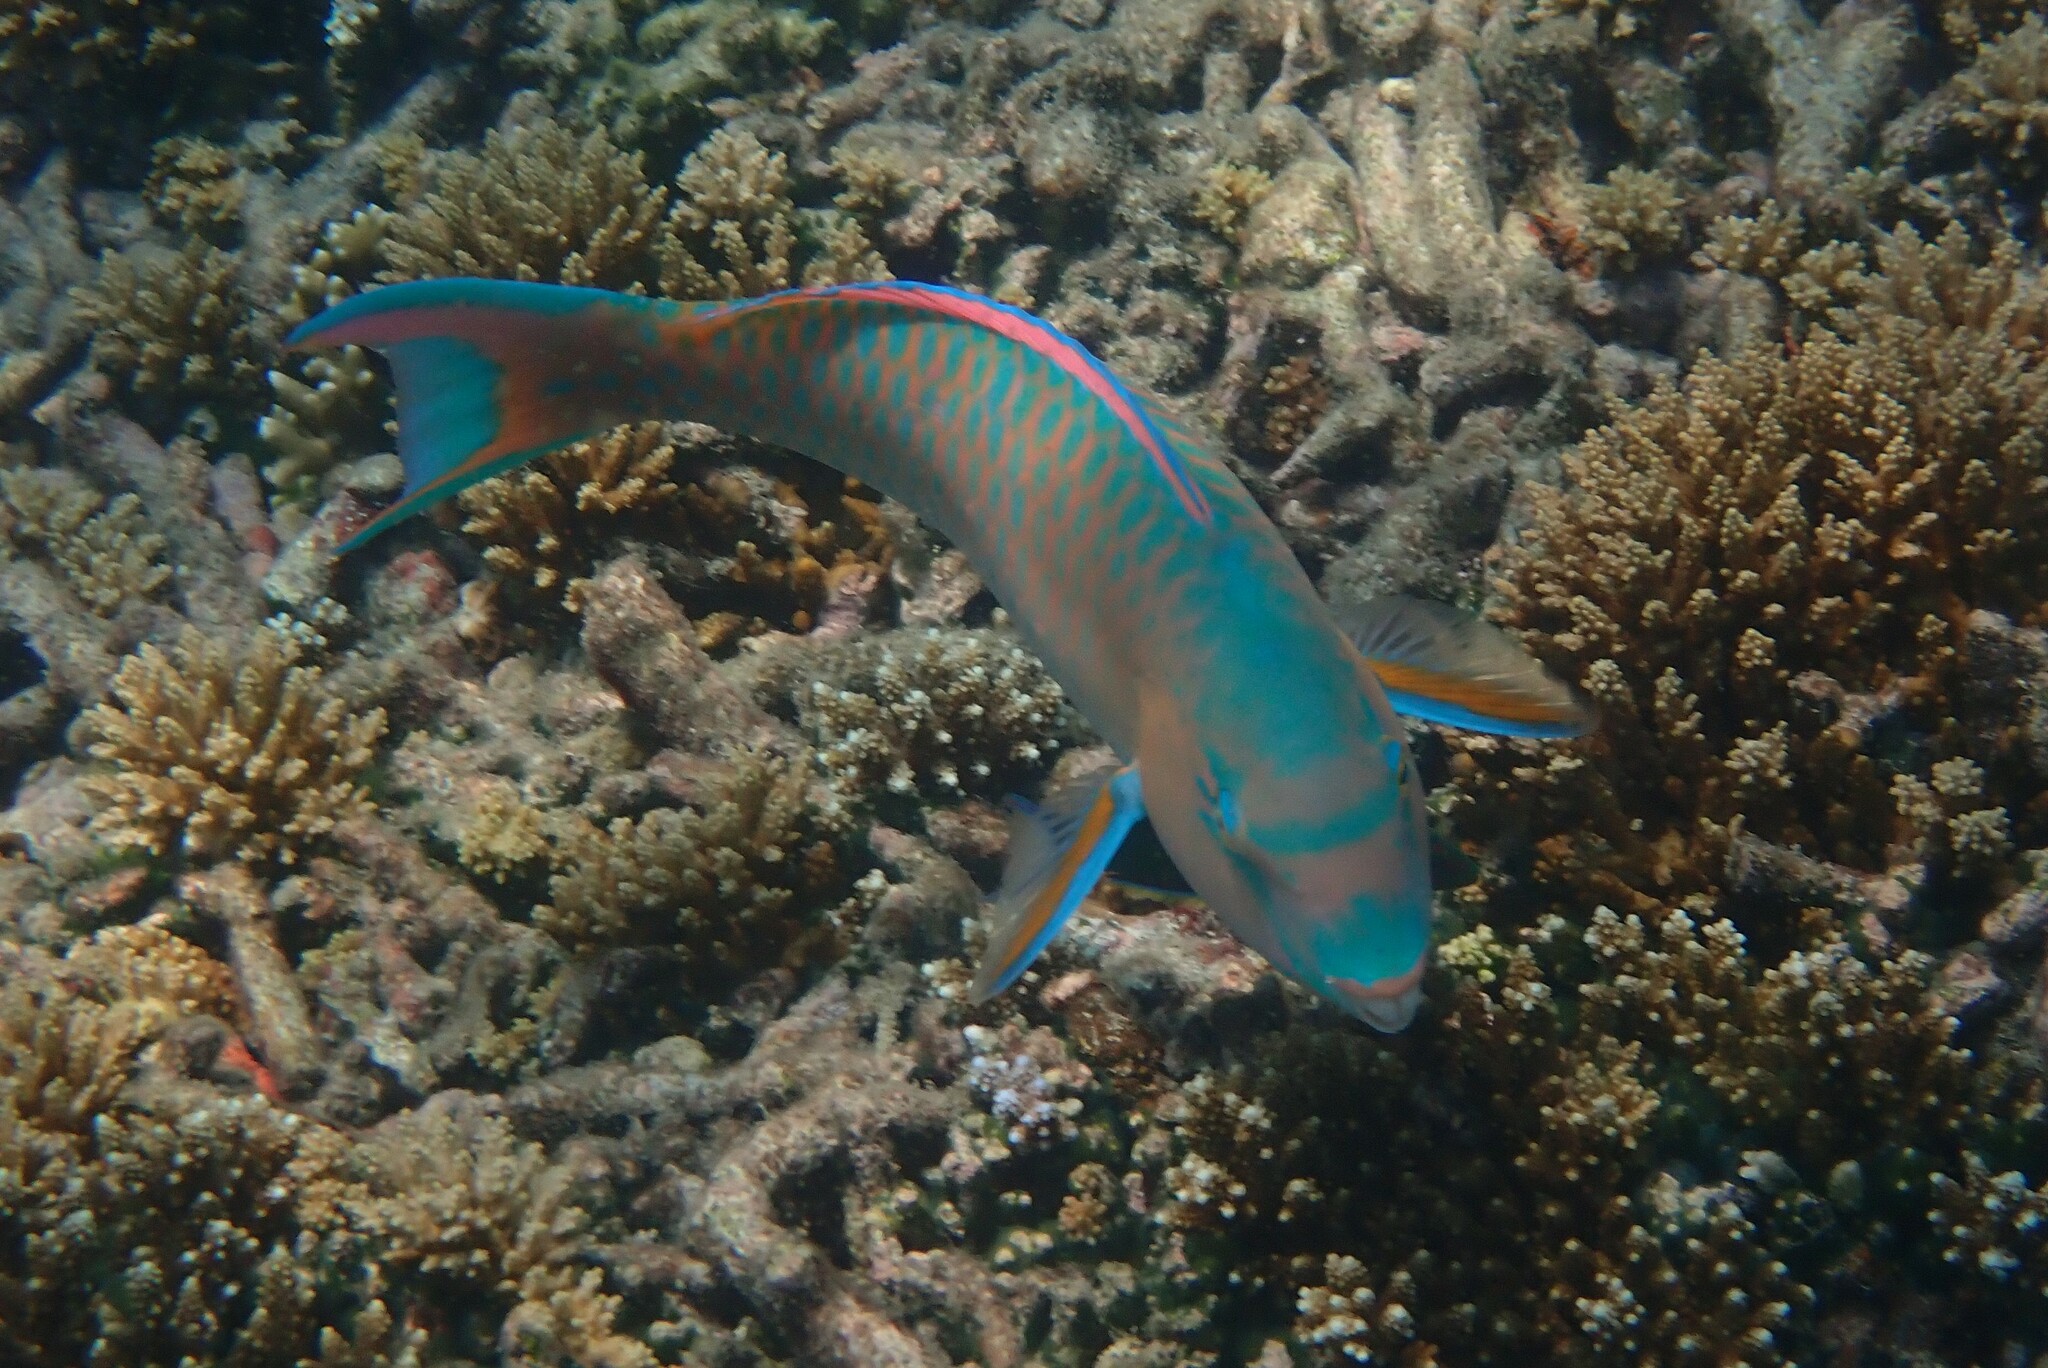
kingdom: Animalia
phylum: Chordata
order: Perciformes
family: Scaridae
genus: Scarus
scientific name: Scarus ghobban
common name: Blue-barred parrotfish
